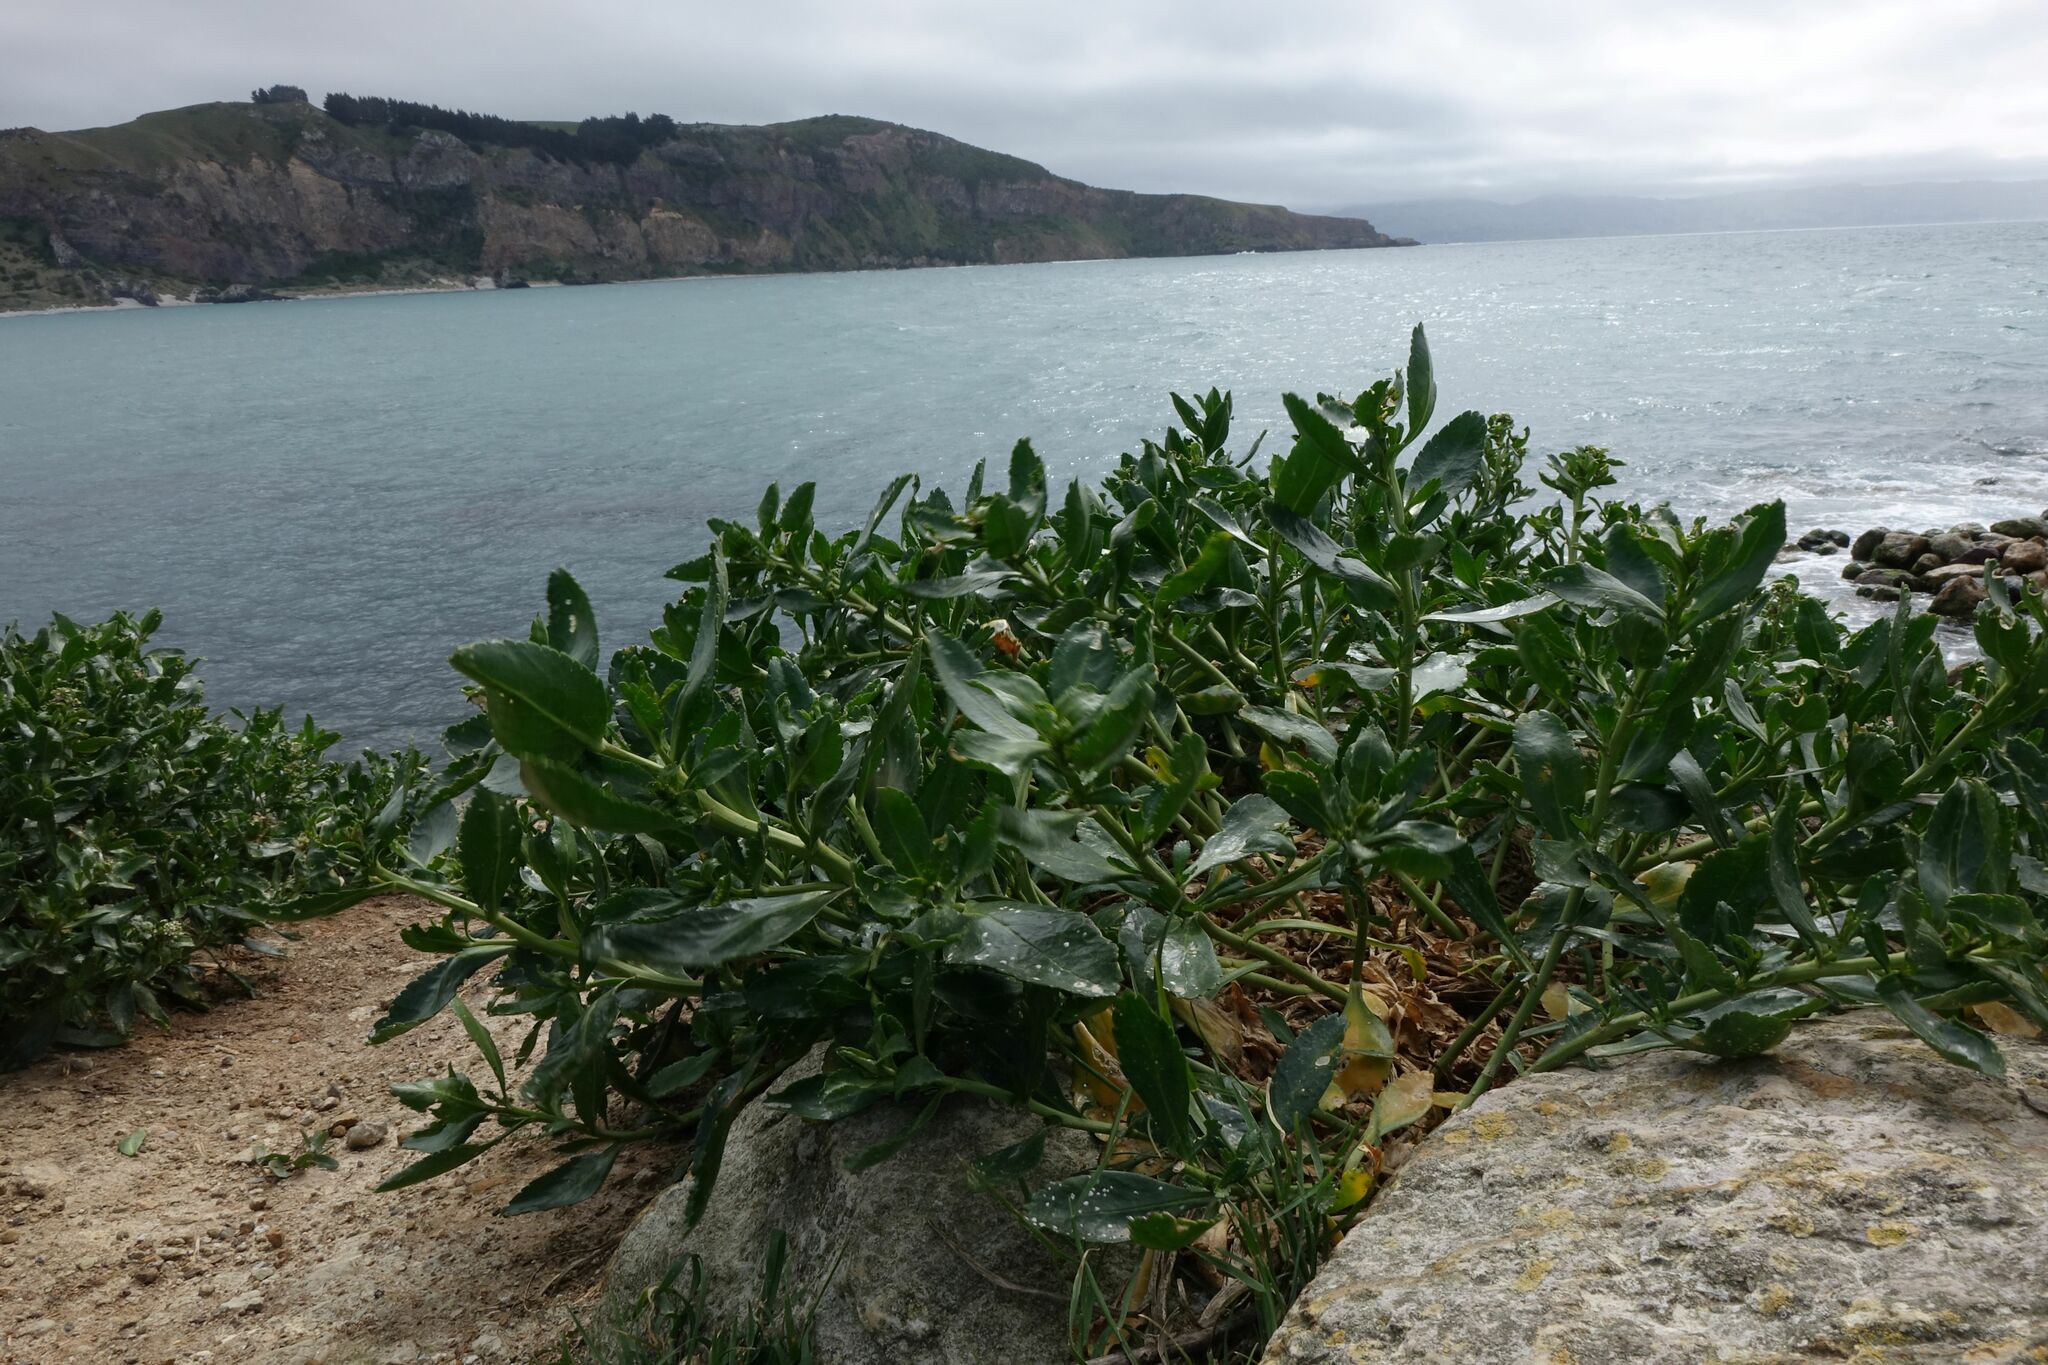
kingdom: Plantae
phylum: Tracheophyta
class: Magnoliopsida
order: Brassicales
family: Brassicaceae
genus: Lepidium
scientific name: Lepidium crassum
